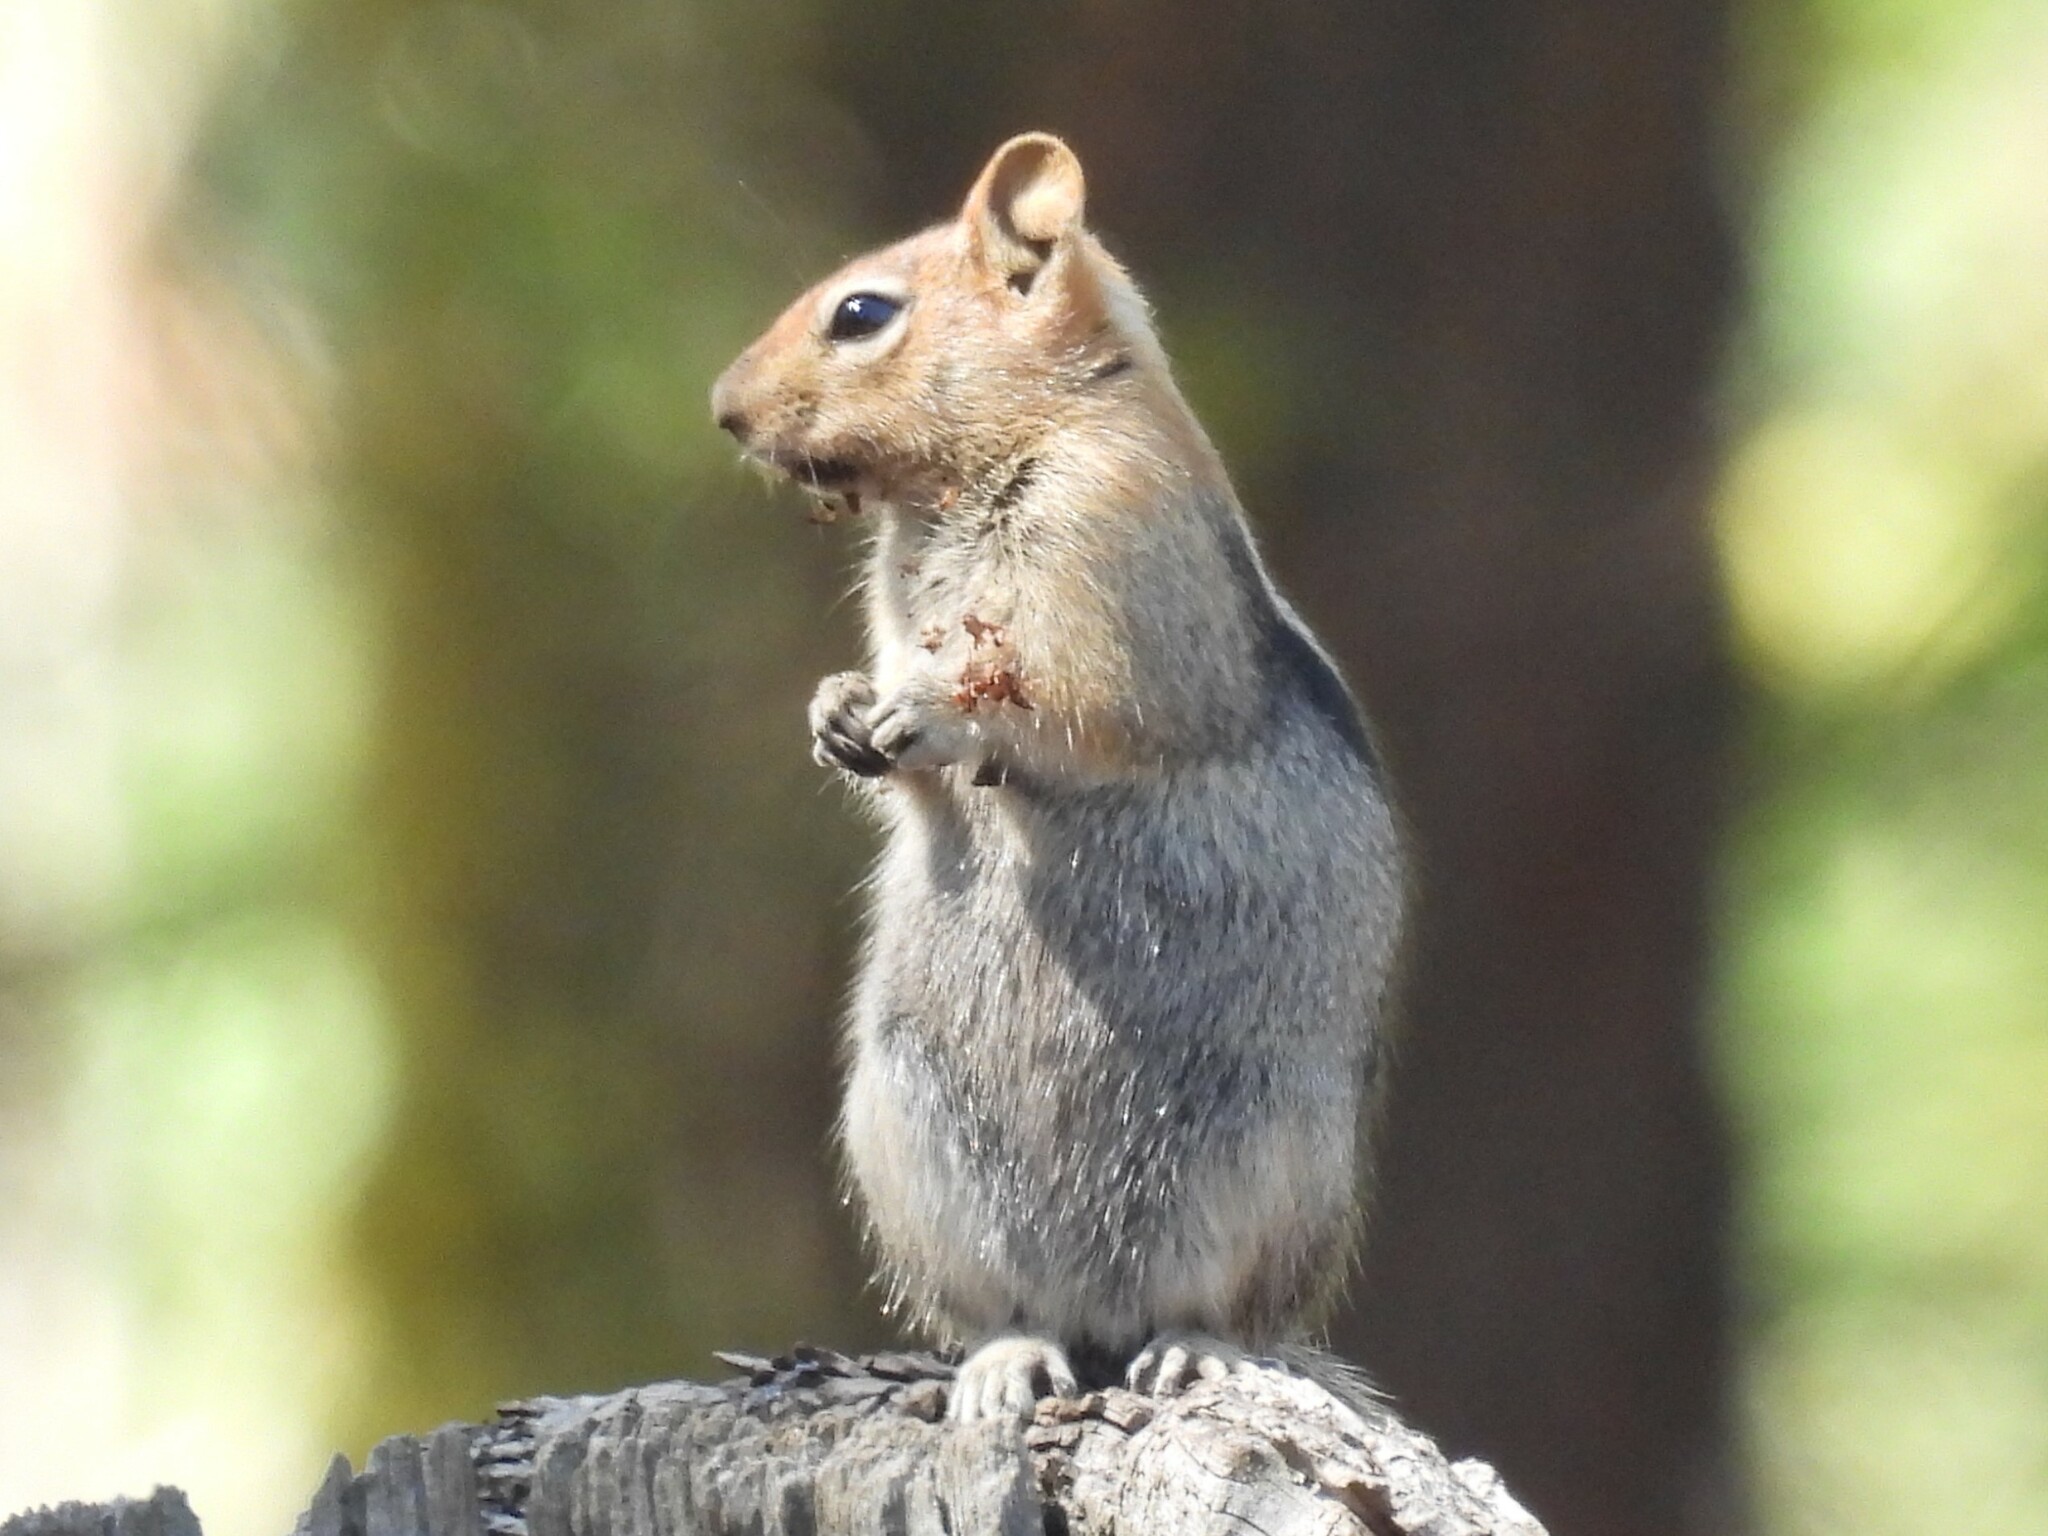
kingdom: Animalia
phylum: Chordata
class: Mammalia
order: Rodentia
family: Sciuridae
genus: Callospermophilus
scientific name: Callospermophilus lateralis
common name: Golden-mantled ground squirrel
